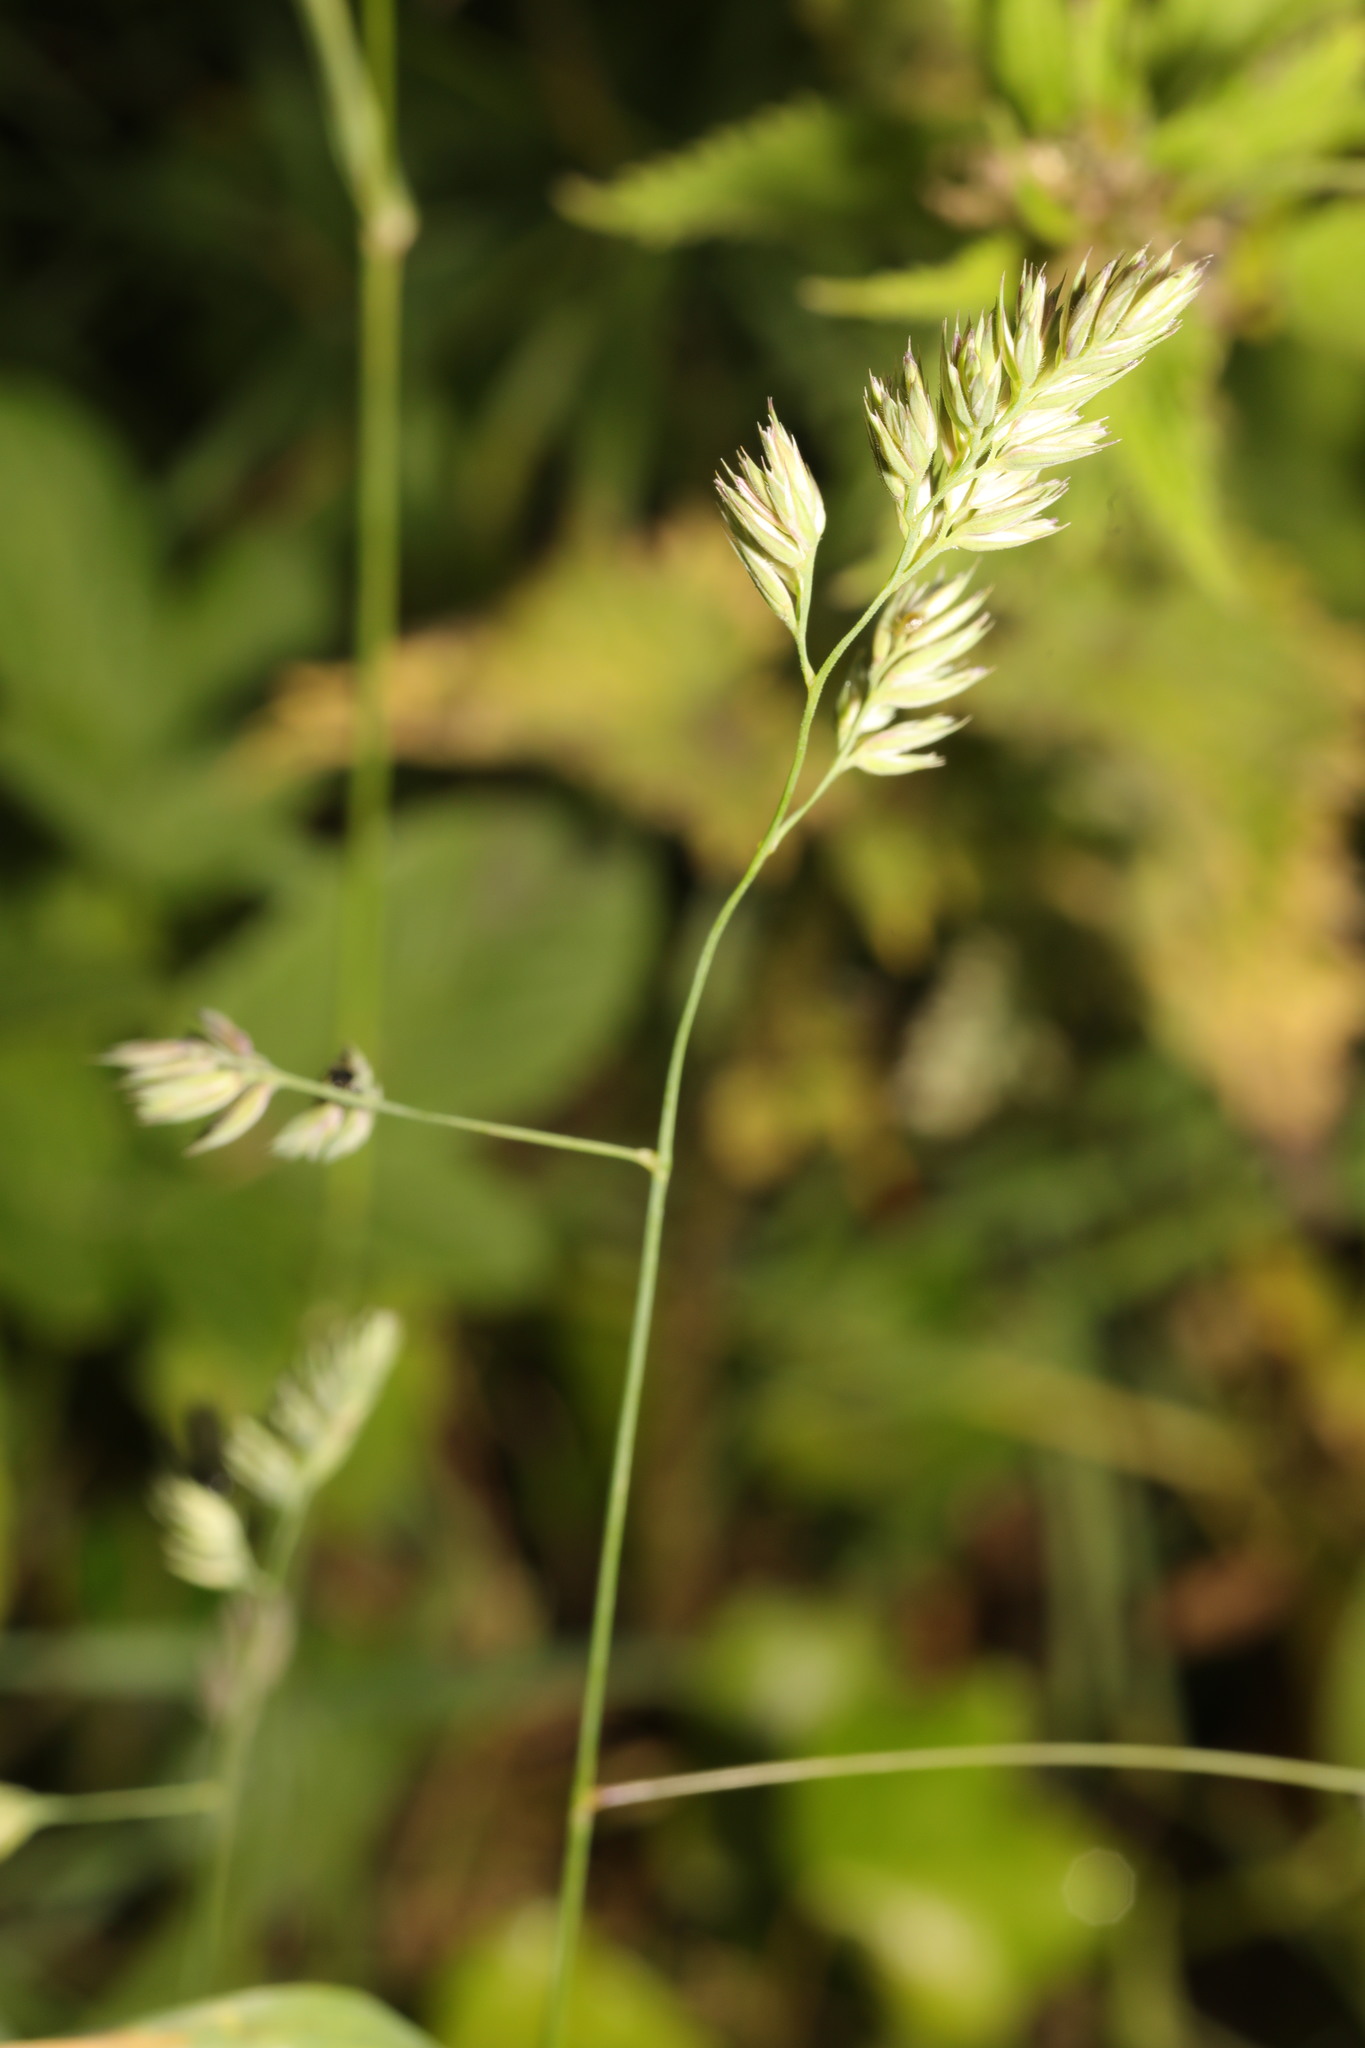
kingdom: Plantae
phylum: Tracheophyta
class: Liliopsida
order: Poales
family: Poaceae
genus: Dactylis
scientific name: Dactylis glomerata
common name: Orchardgrass
